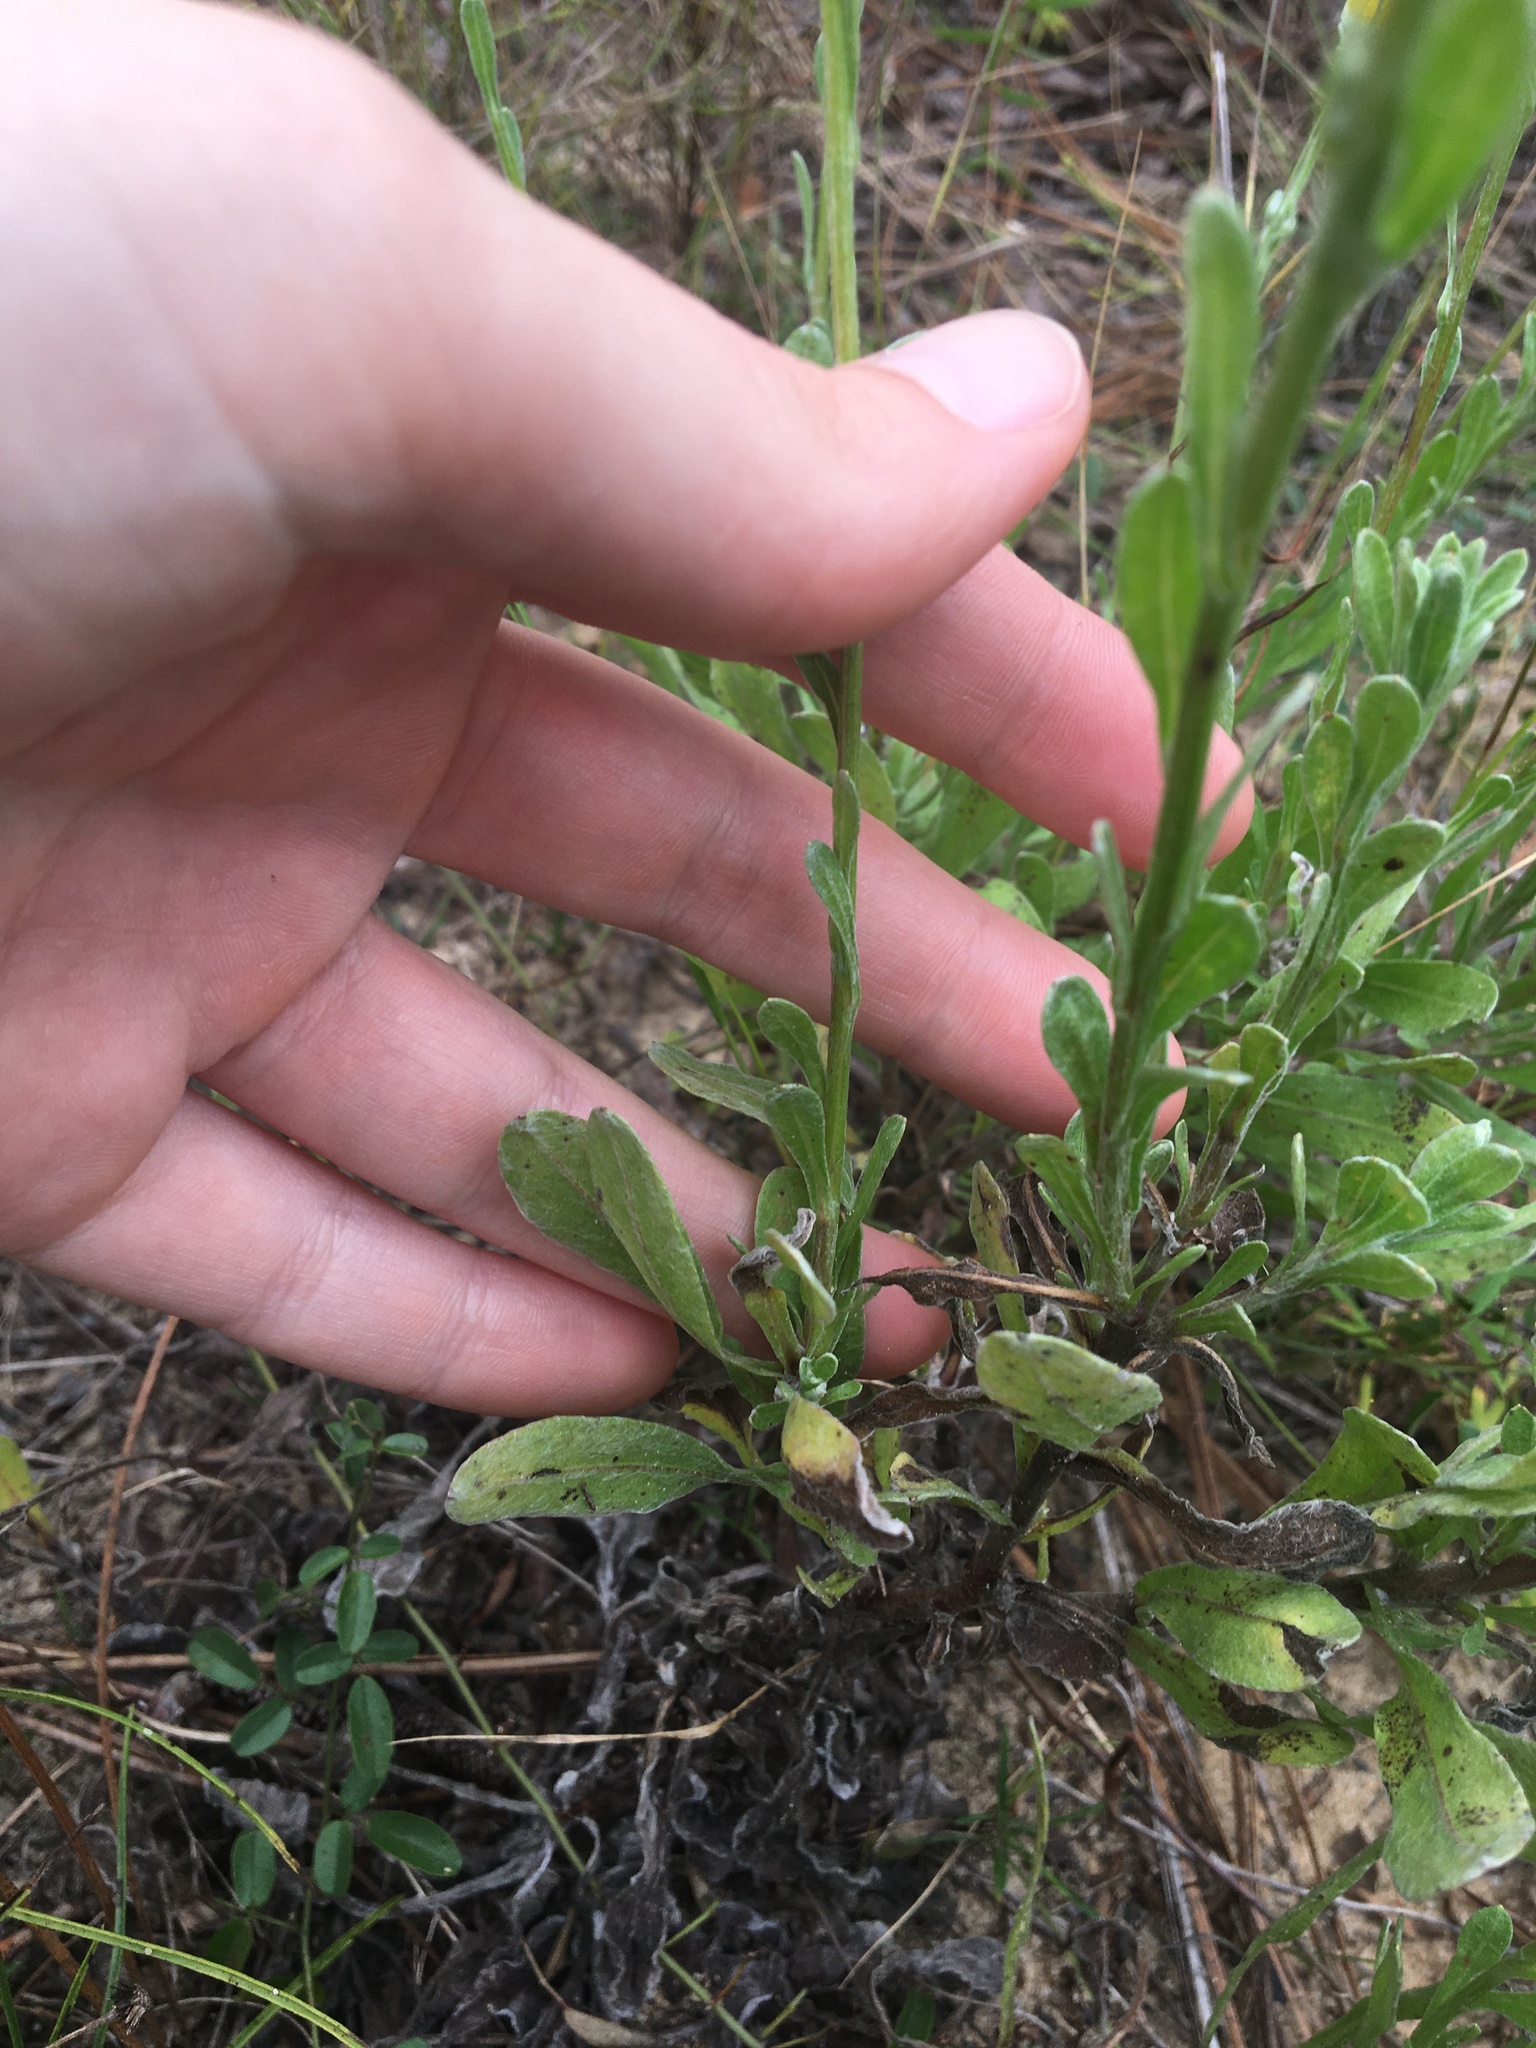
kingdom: Plantae
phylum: Tracheophyta
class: Magnoliopsida
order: Asterales
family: Asteraceae
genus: Chrysopsis
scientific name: Chrysopsis gossypina
